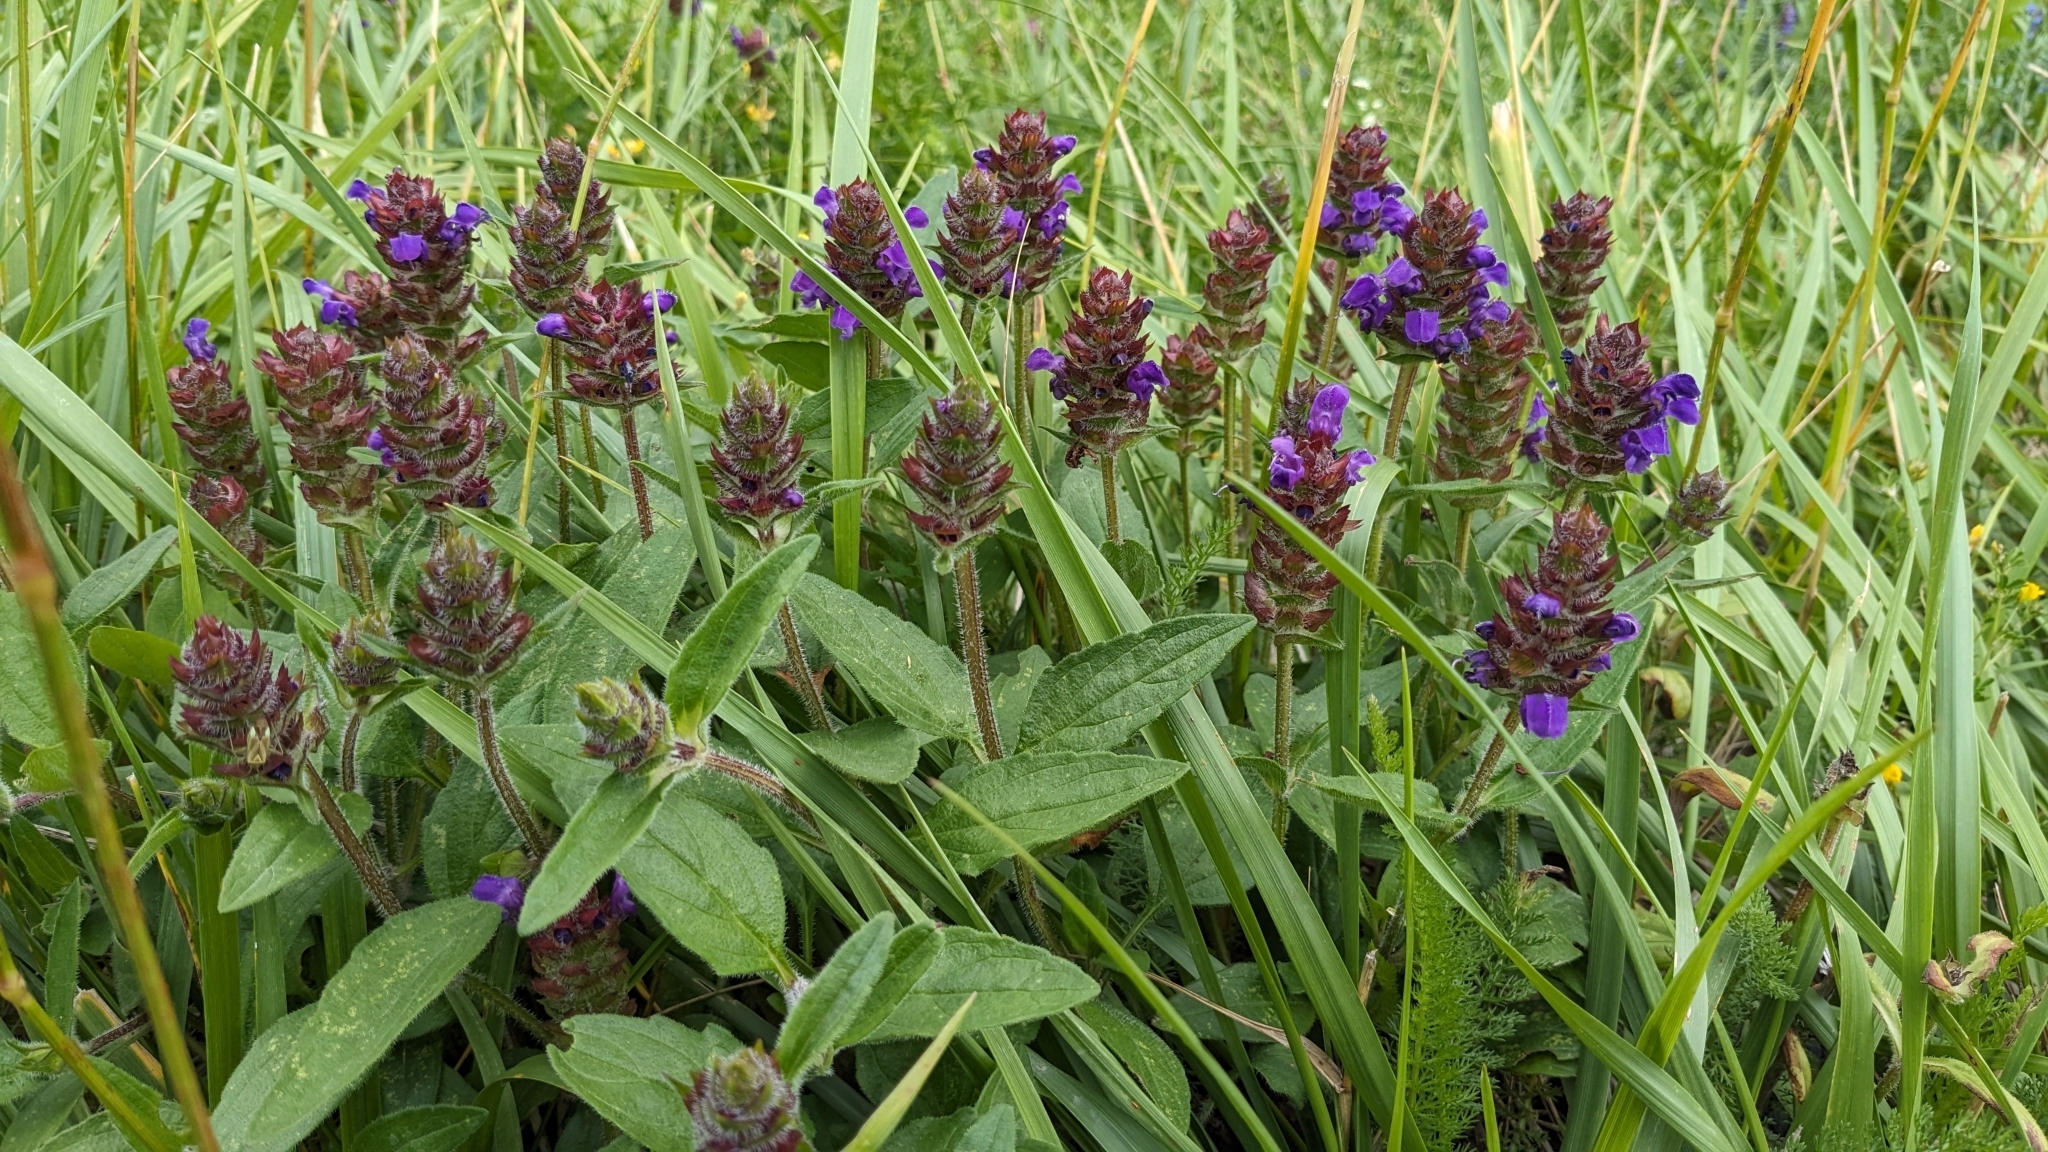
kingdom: Plantae
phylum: Tracheophyta
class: Magnoliopsida
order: Lamiales
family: Lamiaceae
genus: Prunella
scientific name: Prunella grandiflora
